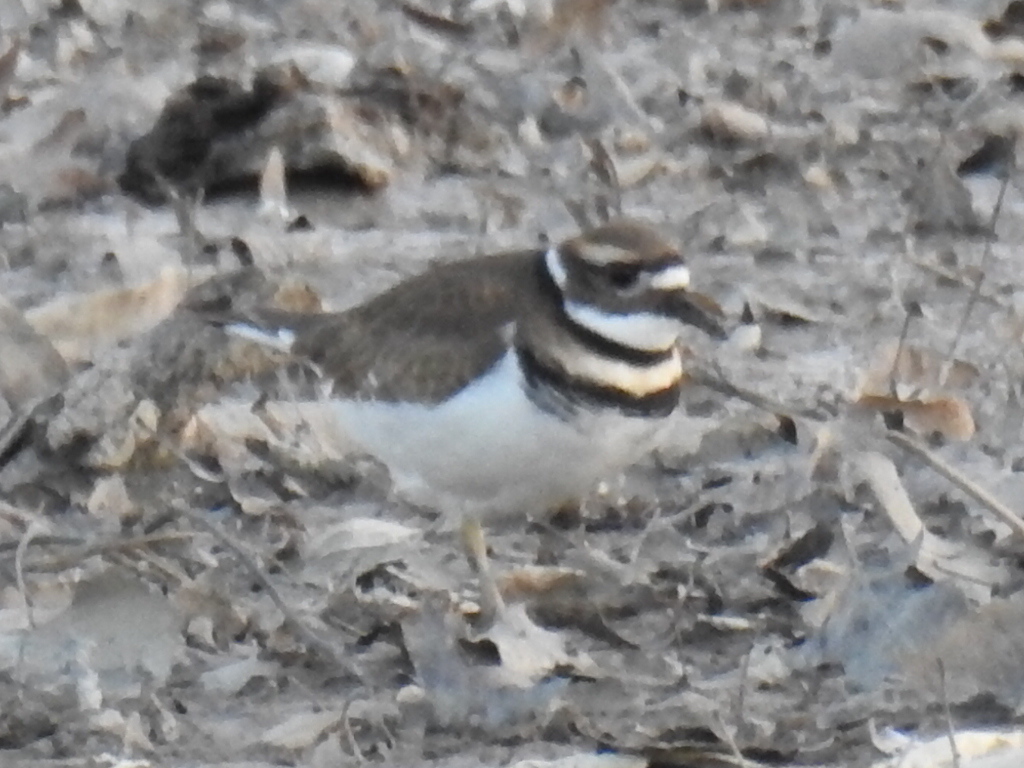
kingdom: Animalia
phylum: Chordata
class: Aves
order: Charadriiformes
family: Charadriidae
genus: Charadrius
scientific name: Charadrius vociferus
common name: Killdeer
